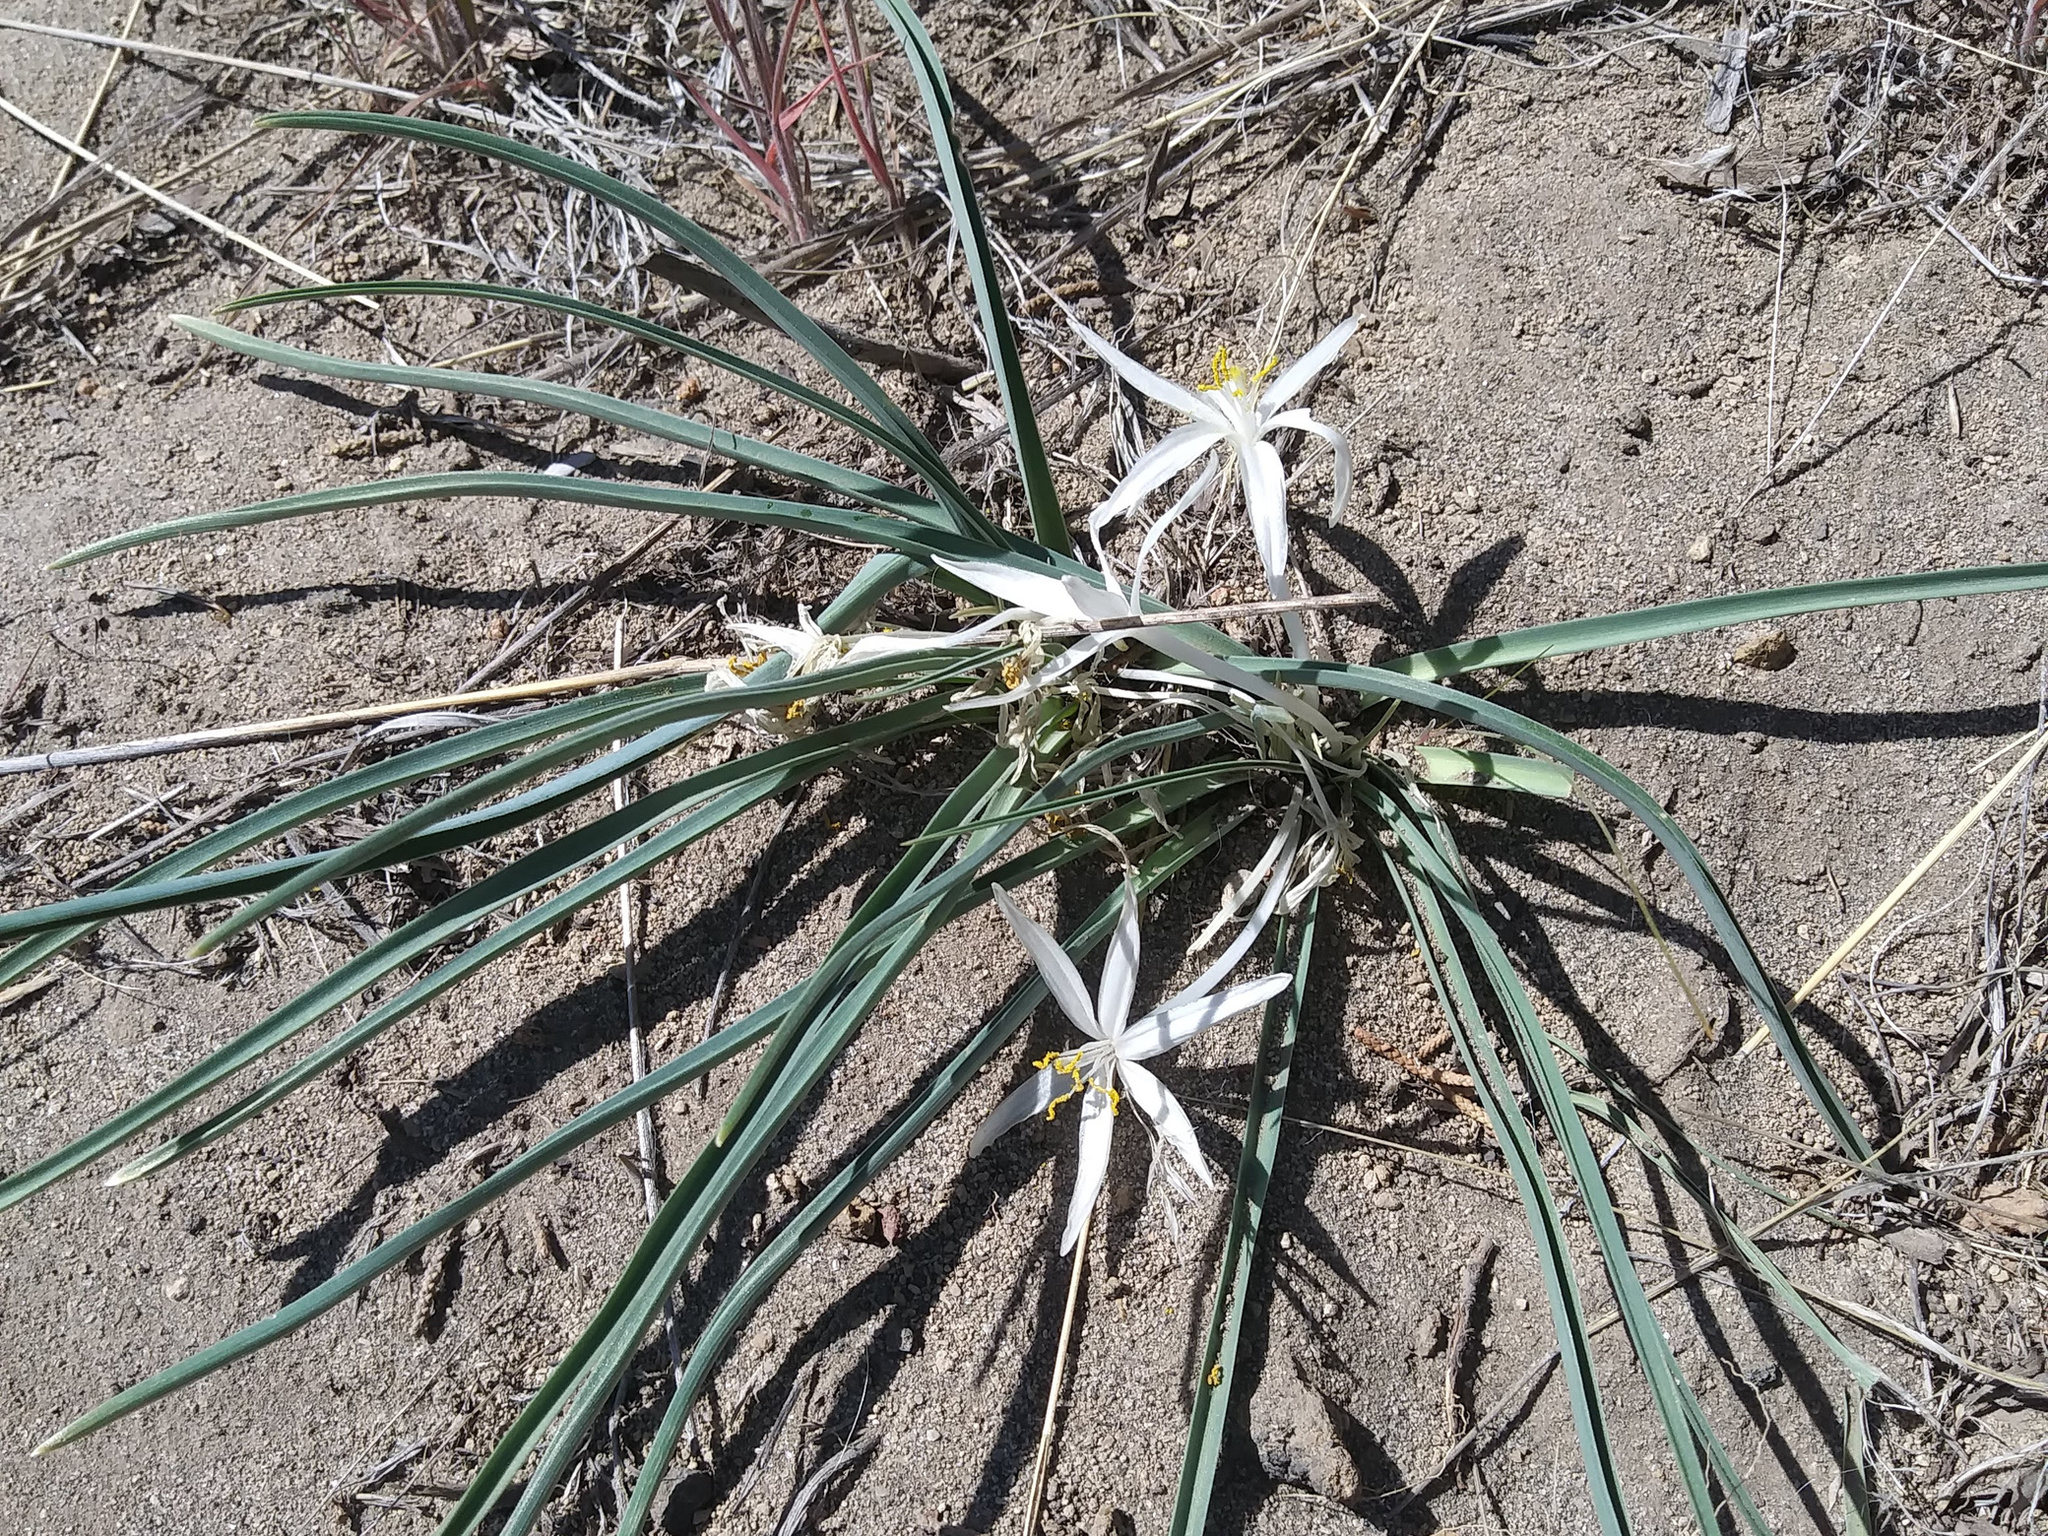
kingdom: Plantae
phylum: Tracheophyta
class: Liliopsida
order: Asparagales
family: Asparagaceae
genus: Leucocrinum
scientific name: Leucocrinum montanum
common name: Mountain-lily
